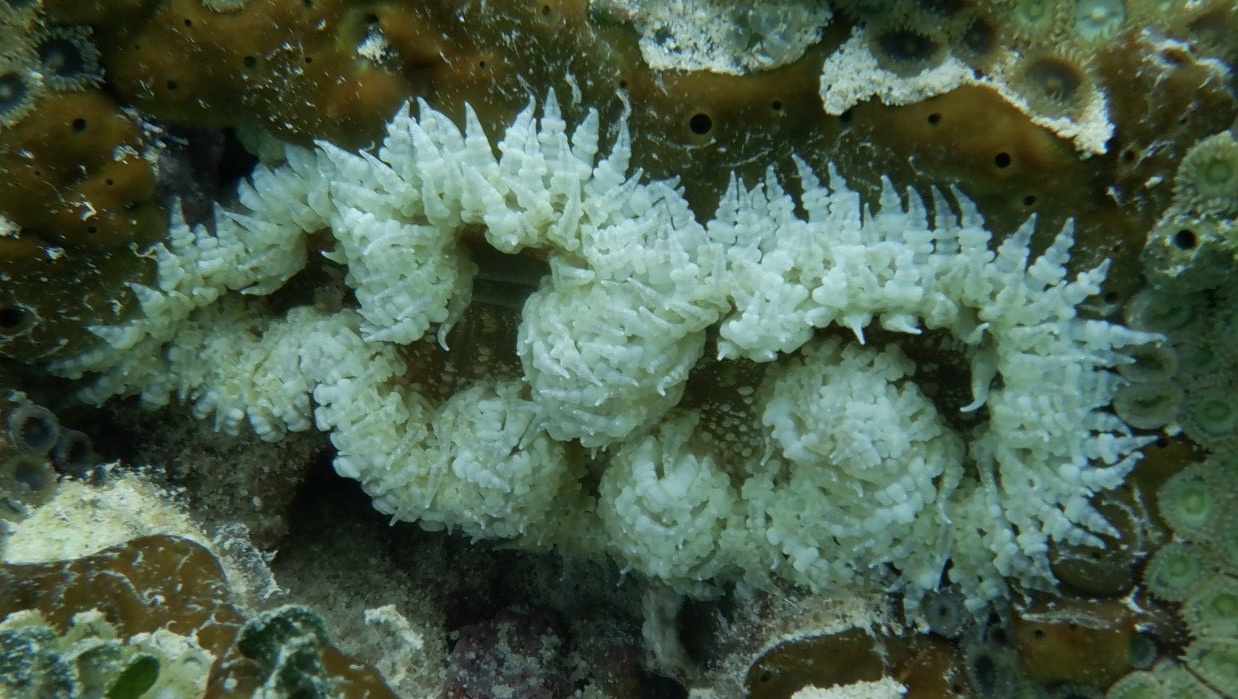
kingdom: Animalia
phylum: Cnidaria
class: Anthozoa
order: Actiniaria
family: Phymanthidae
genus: Phymanthus
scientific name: Phymanthus crucifer
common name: Red beaded anemone
